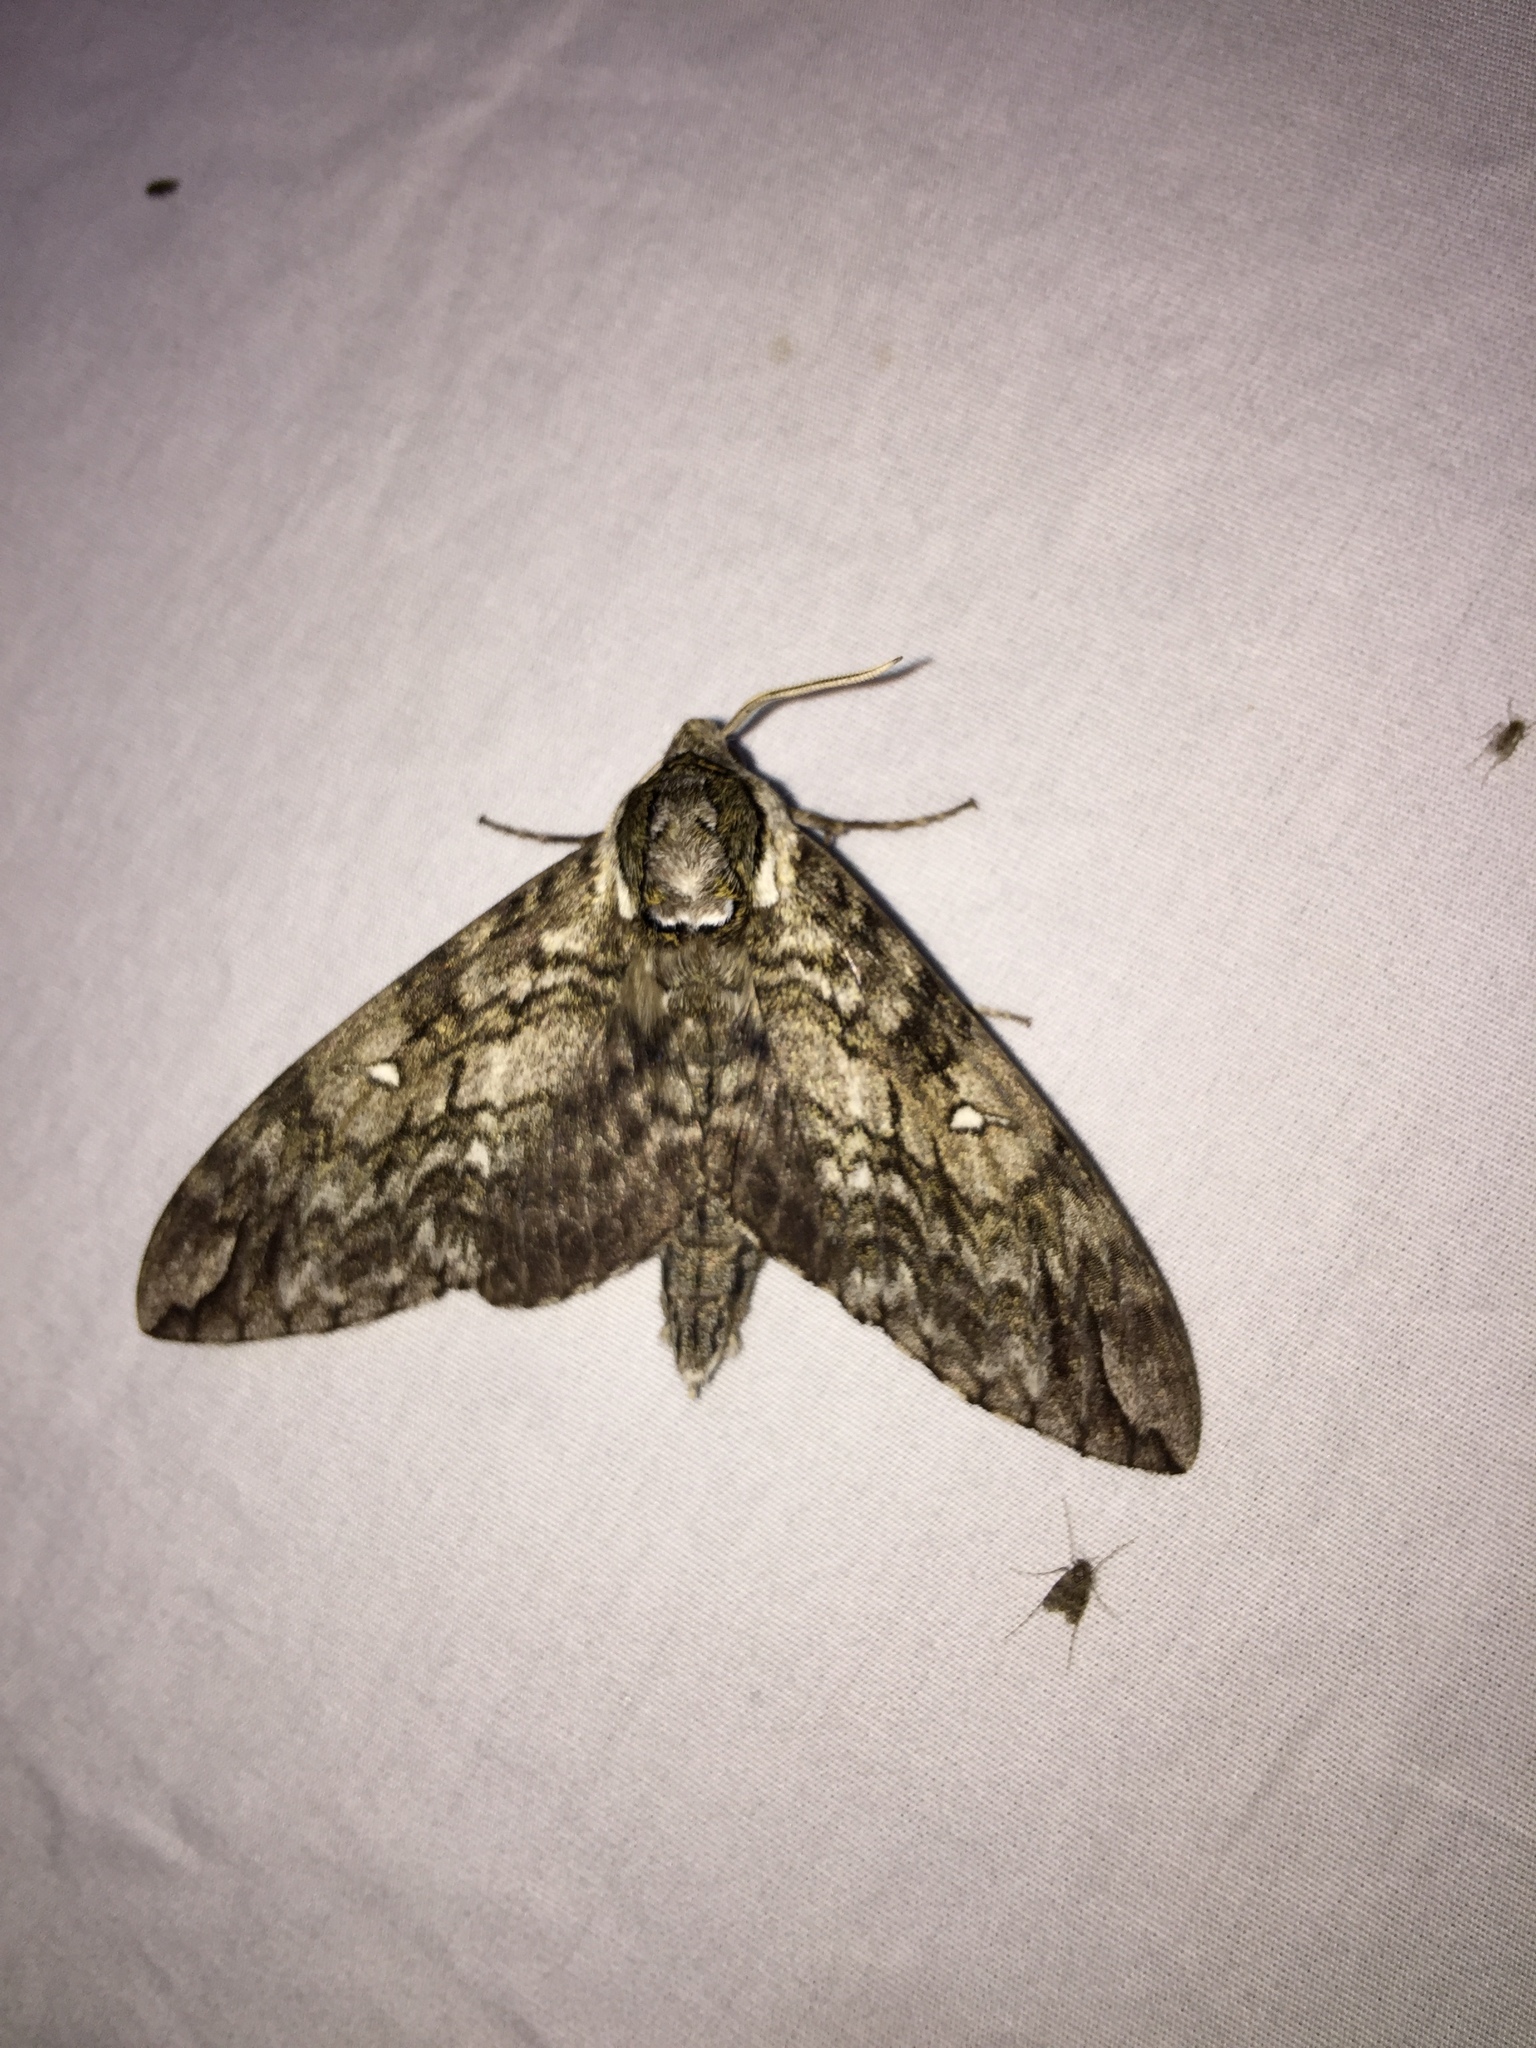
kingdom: Animalia
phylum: Arthropoda
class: Insecta
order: Lepidoptera
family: Sphingidae
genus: Ceratomia
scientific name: Ceratomia undulosa
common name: Waved sphinx
